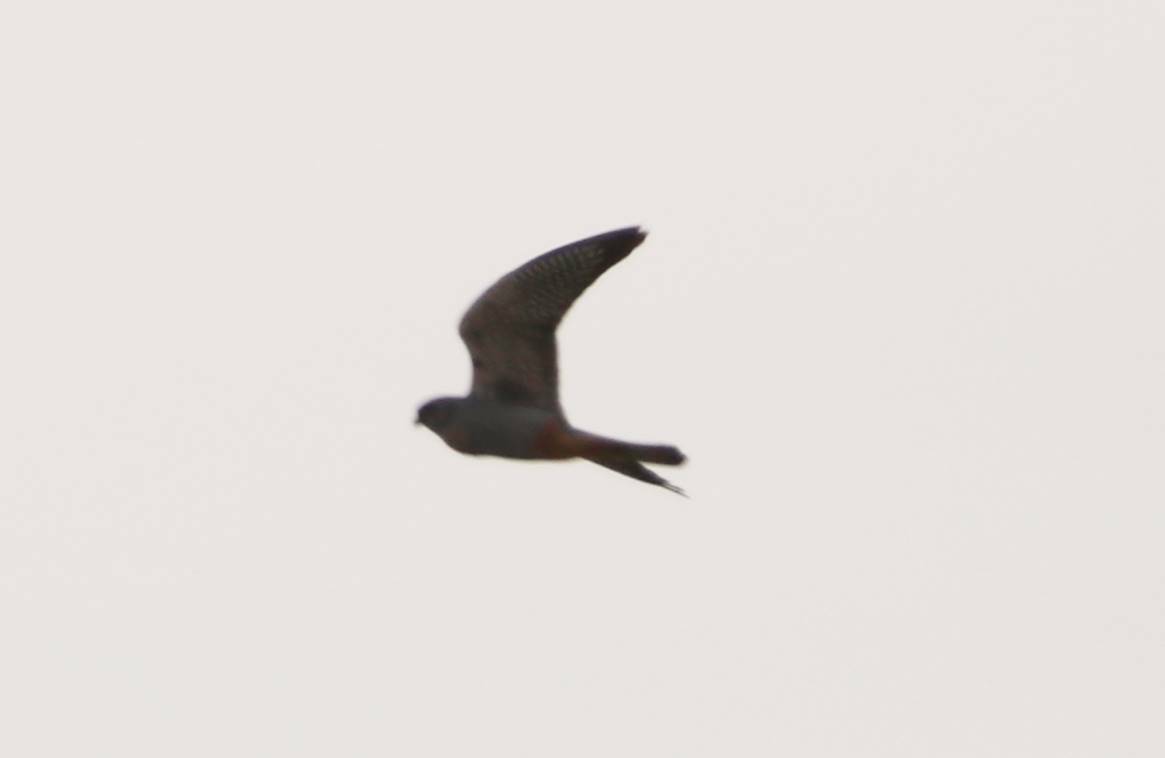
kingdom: Animalia
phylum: Chordata
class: Aves
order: Falconiformes
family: Falconidae
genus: Falco
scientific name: Falco vespertinus
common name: Red-footed falcon
